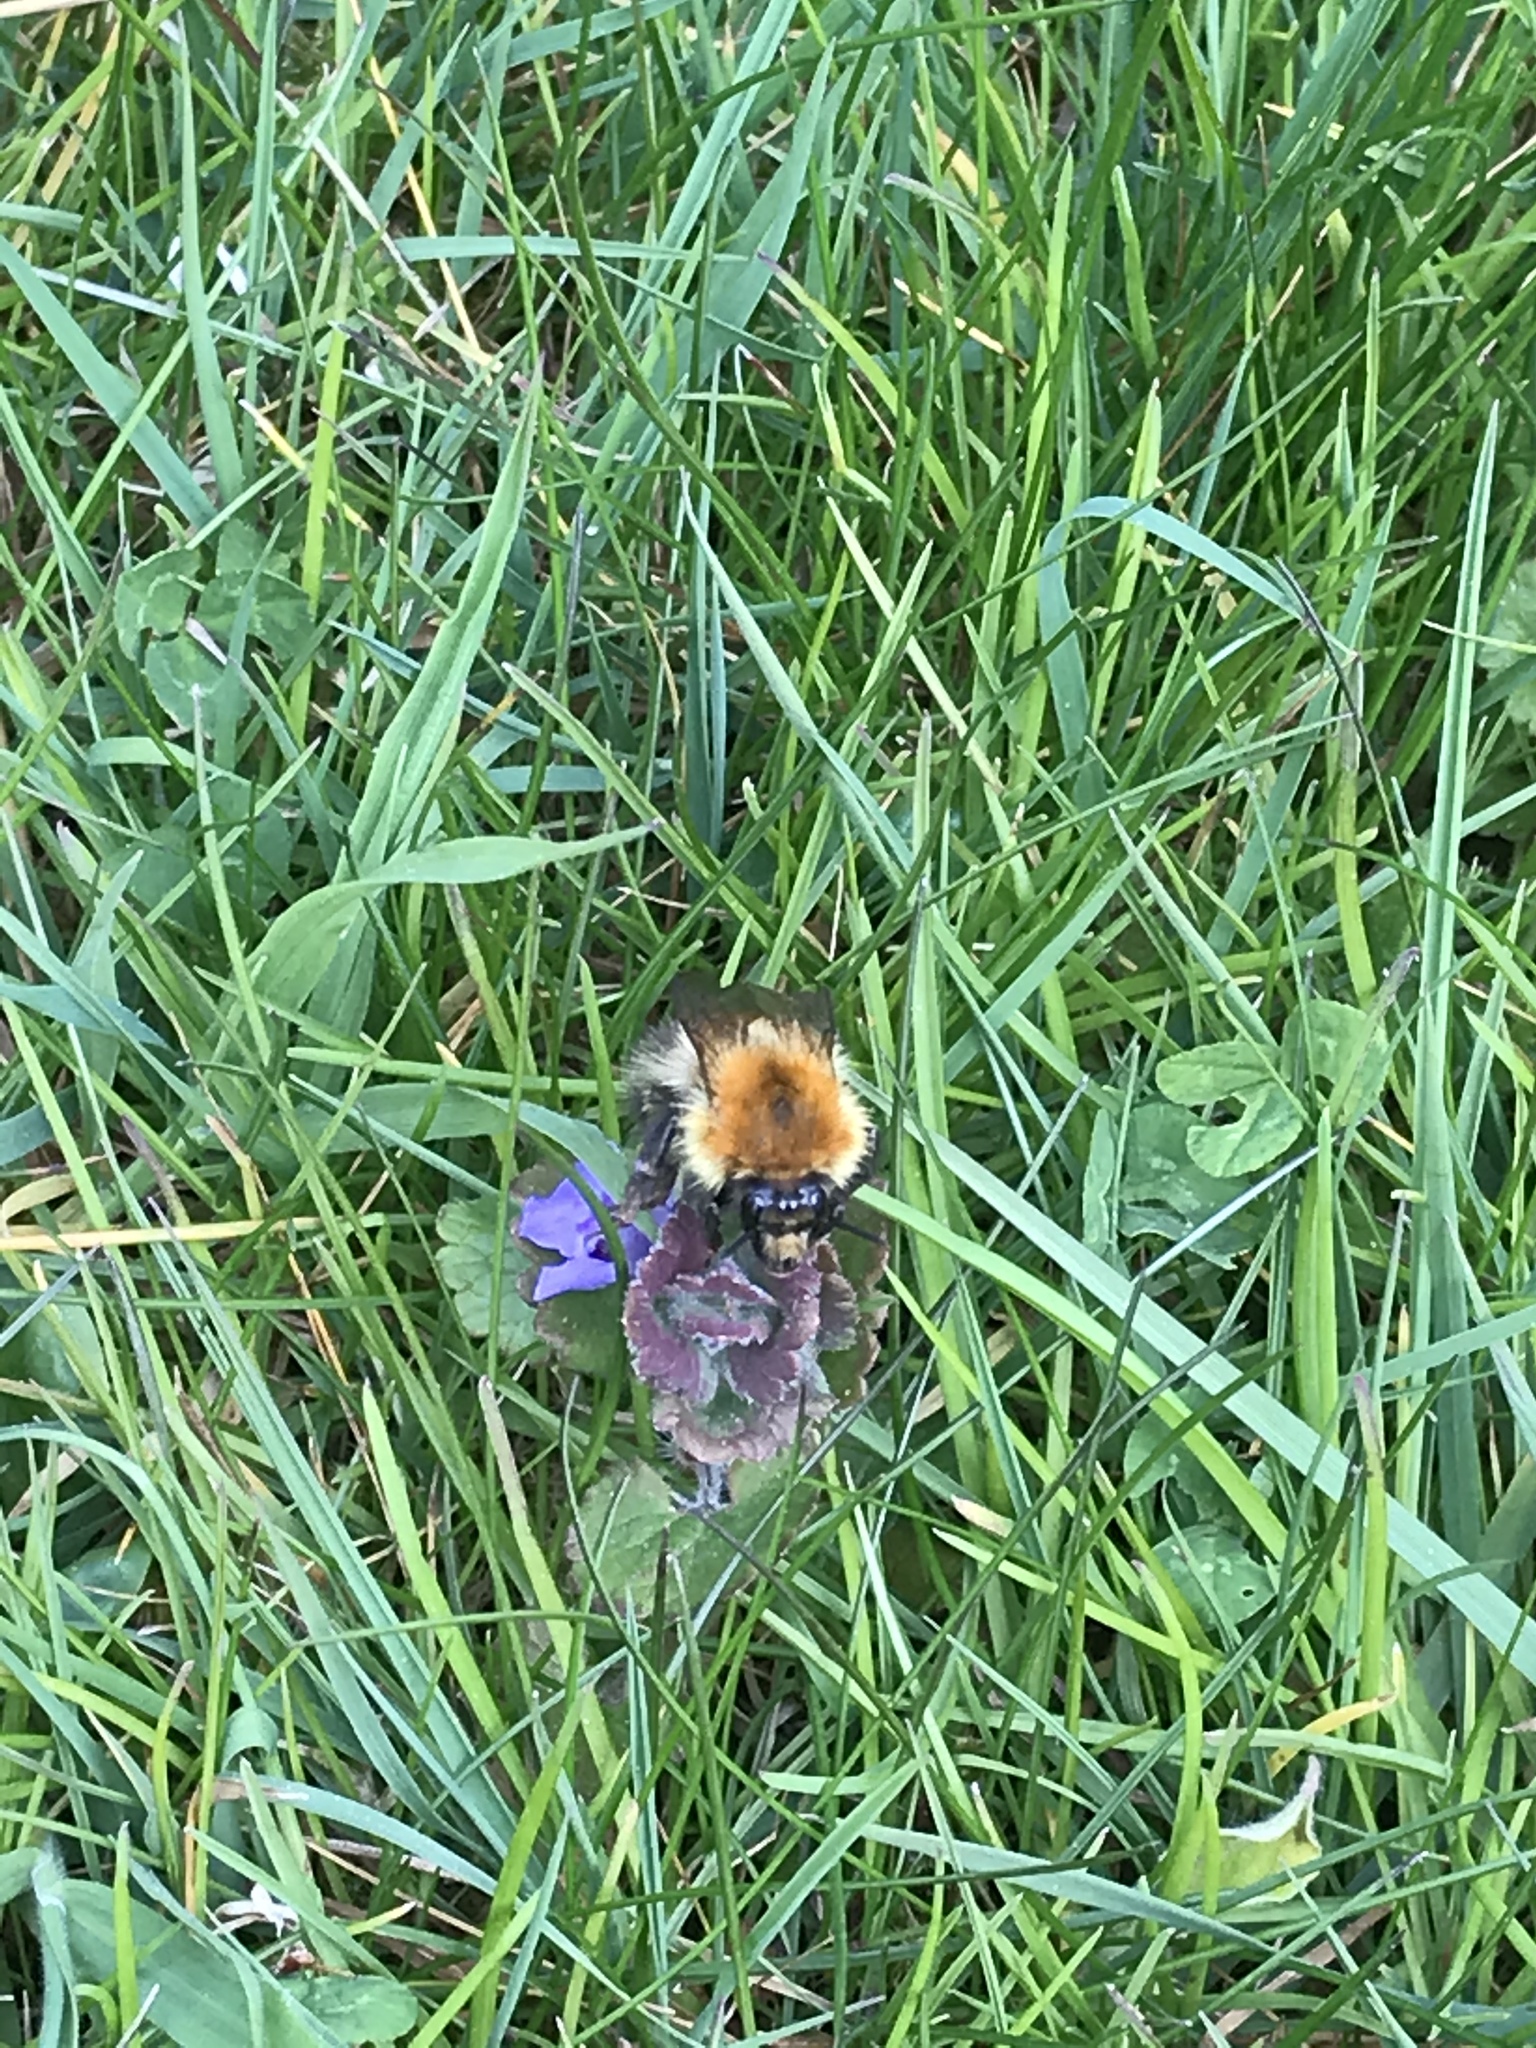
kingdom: Animalia
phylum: Arthropoda
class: Insecta
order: Hymenoptera
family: Apidae
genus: Bombus
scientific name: Bombus pascuorum
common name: Common carder bee
